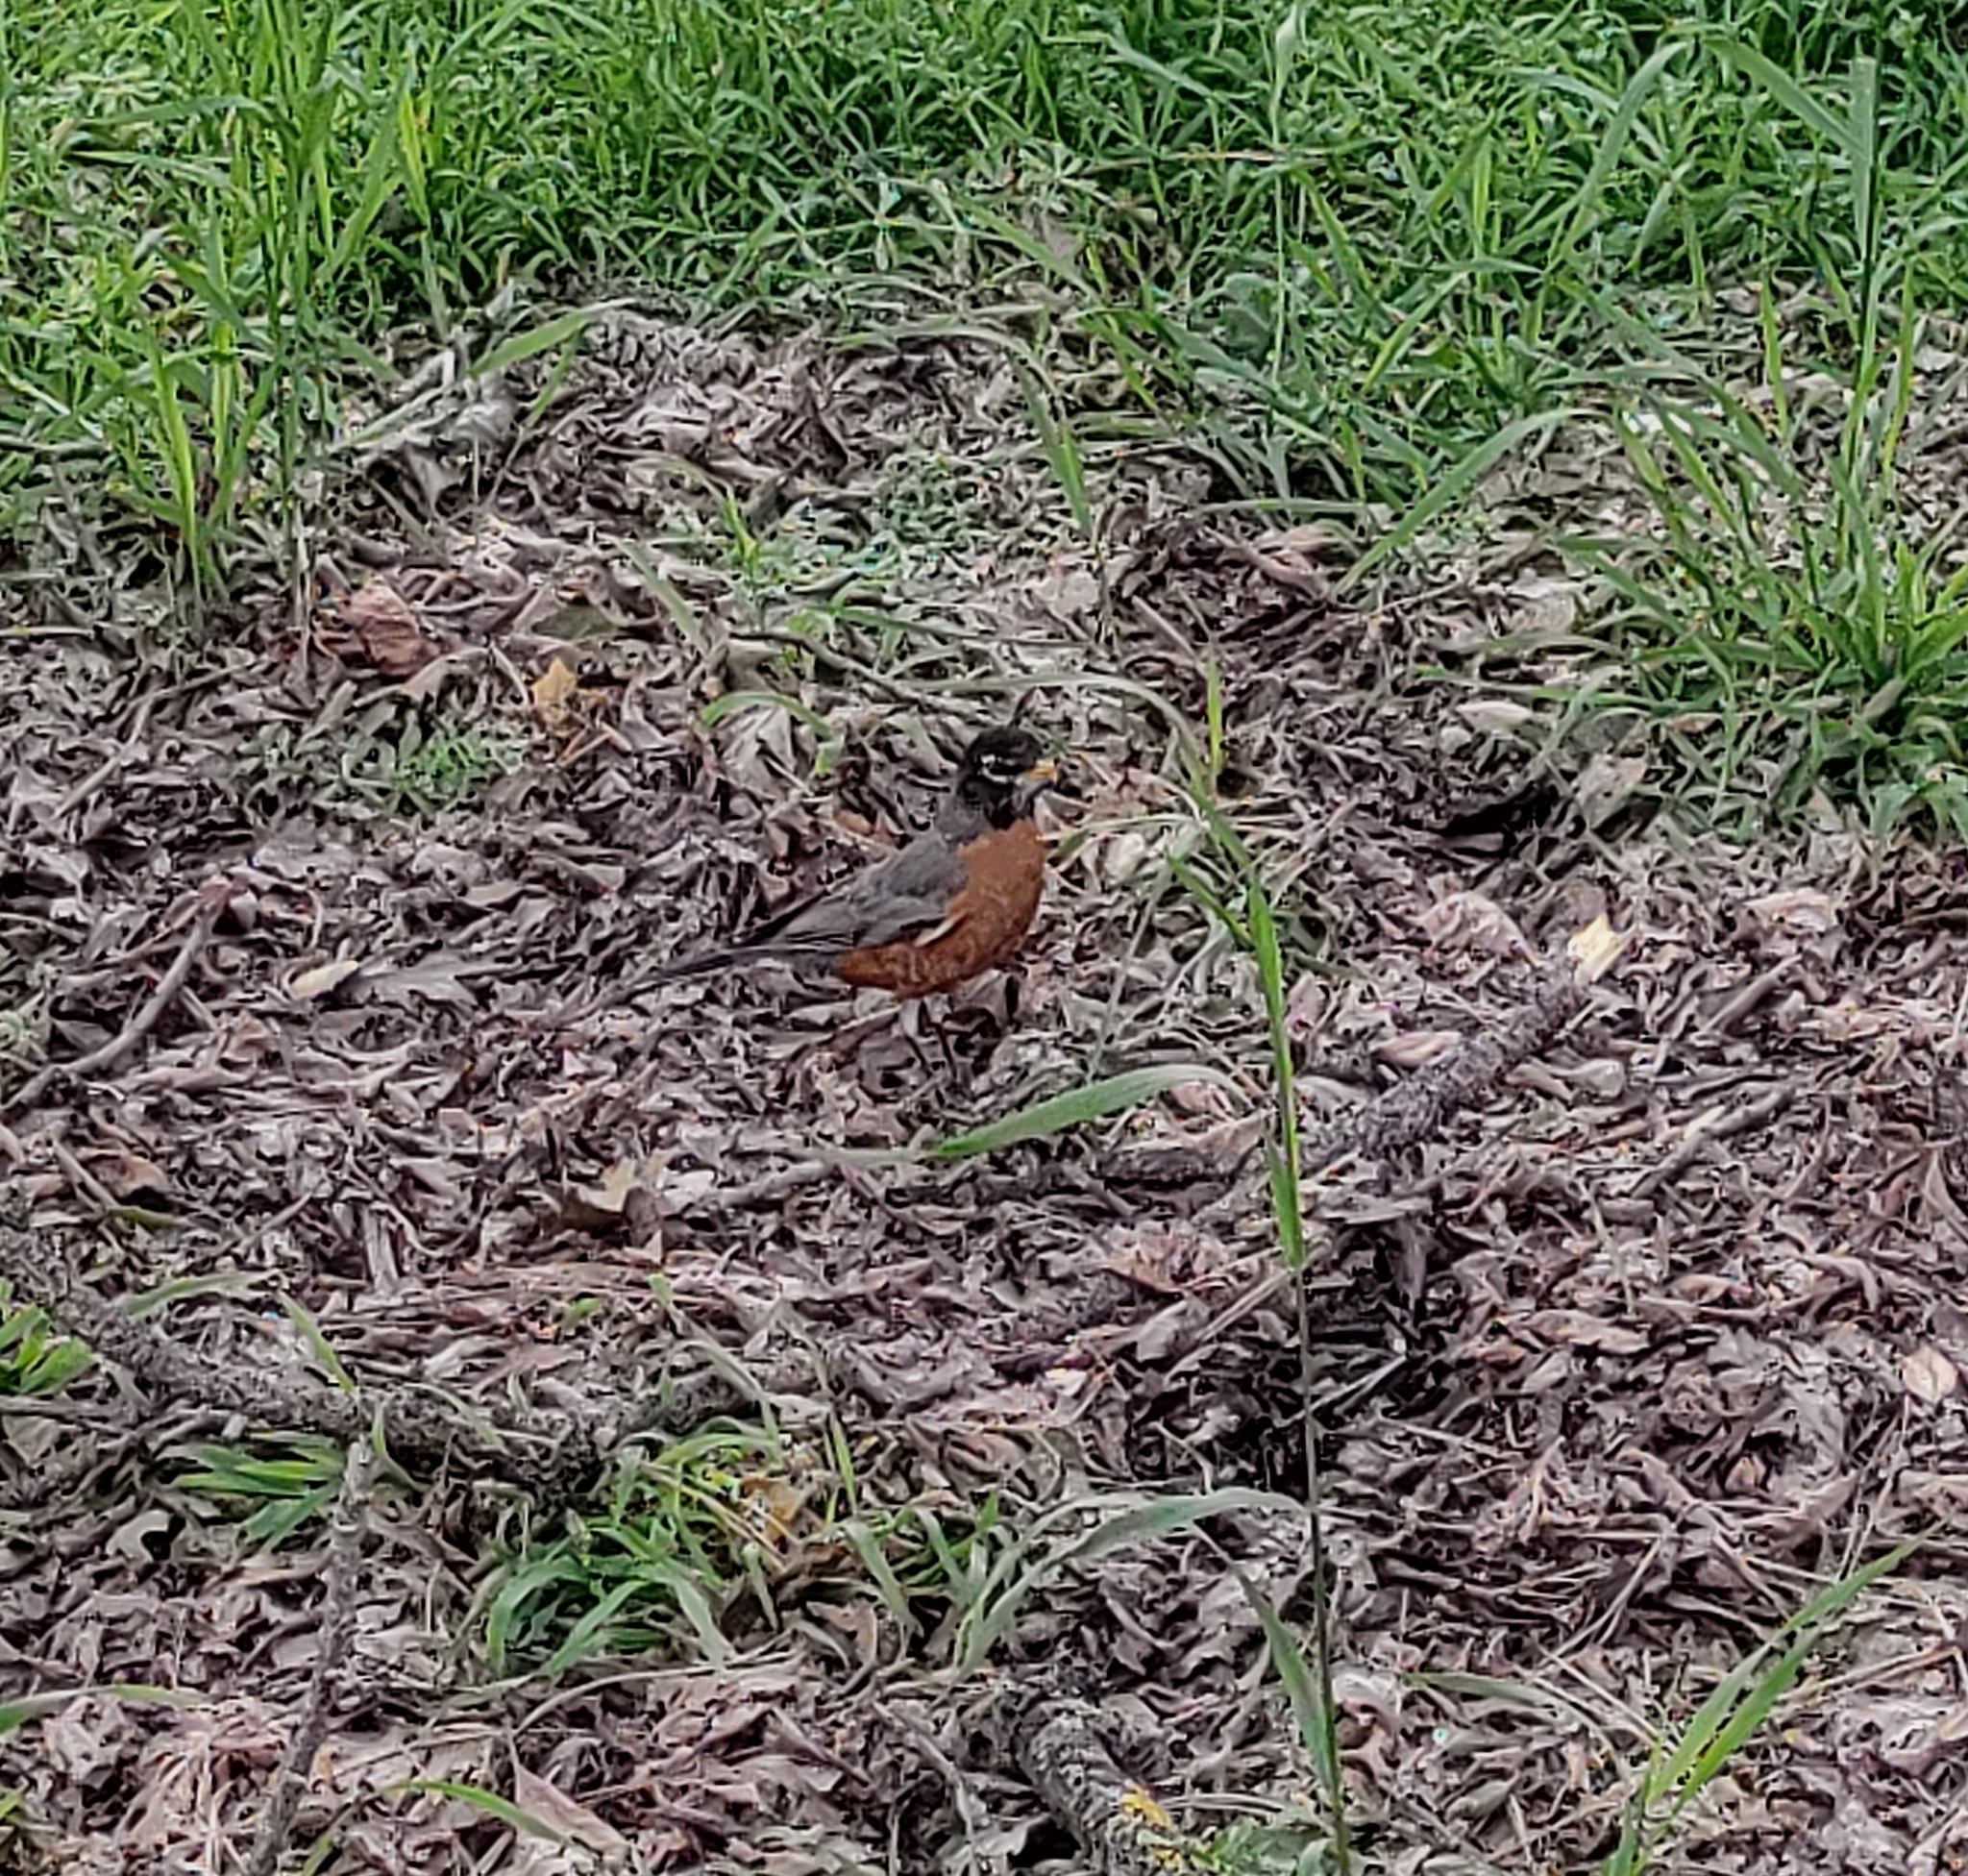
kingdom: Animalia
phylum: Chordata
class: Aves
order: Passeriformes
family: Turdidae
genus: Turdus
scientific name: Turdus migratorius
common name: American robin
